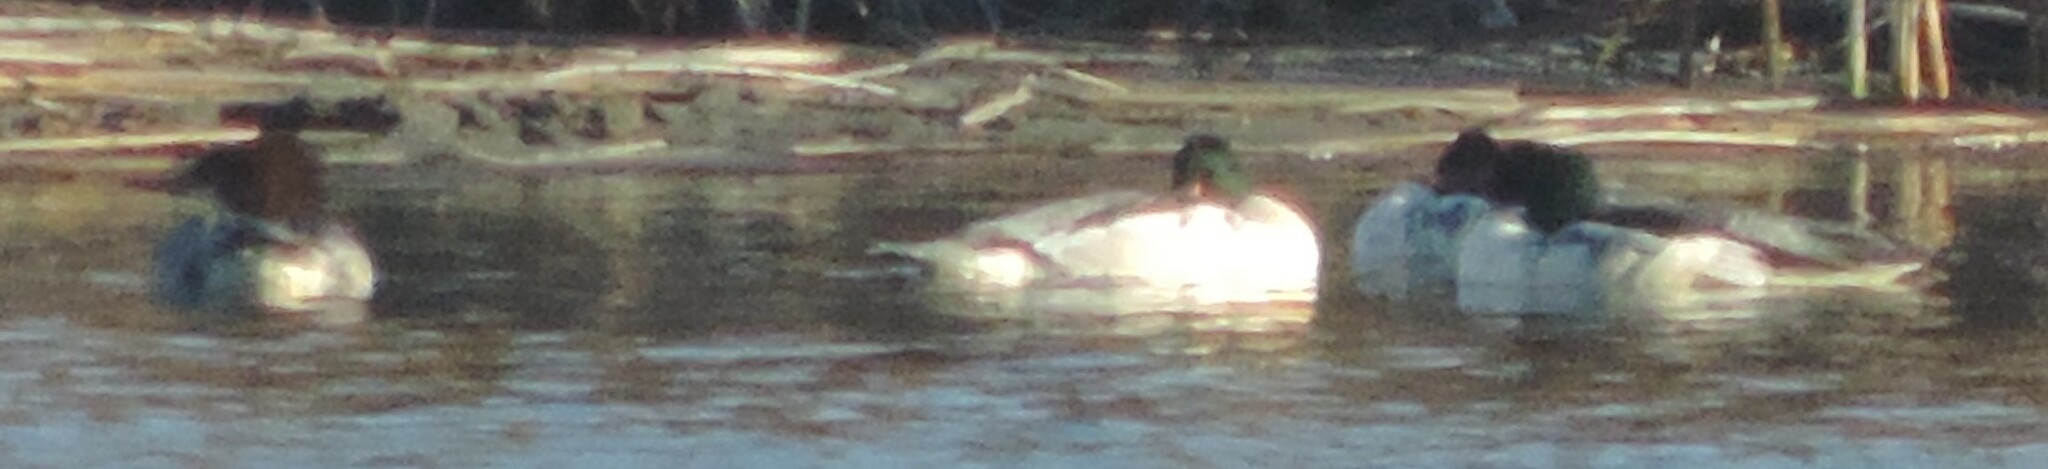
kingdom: Animalia
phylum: Chordata
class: Aves
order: Anseriformes
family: Anatidae
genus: Mergus
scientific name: Mergus merganser
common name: Common merganser
